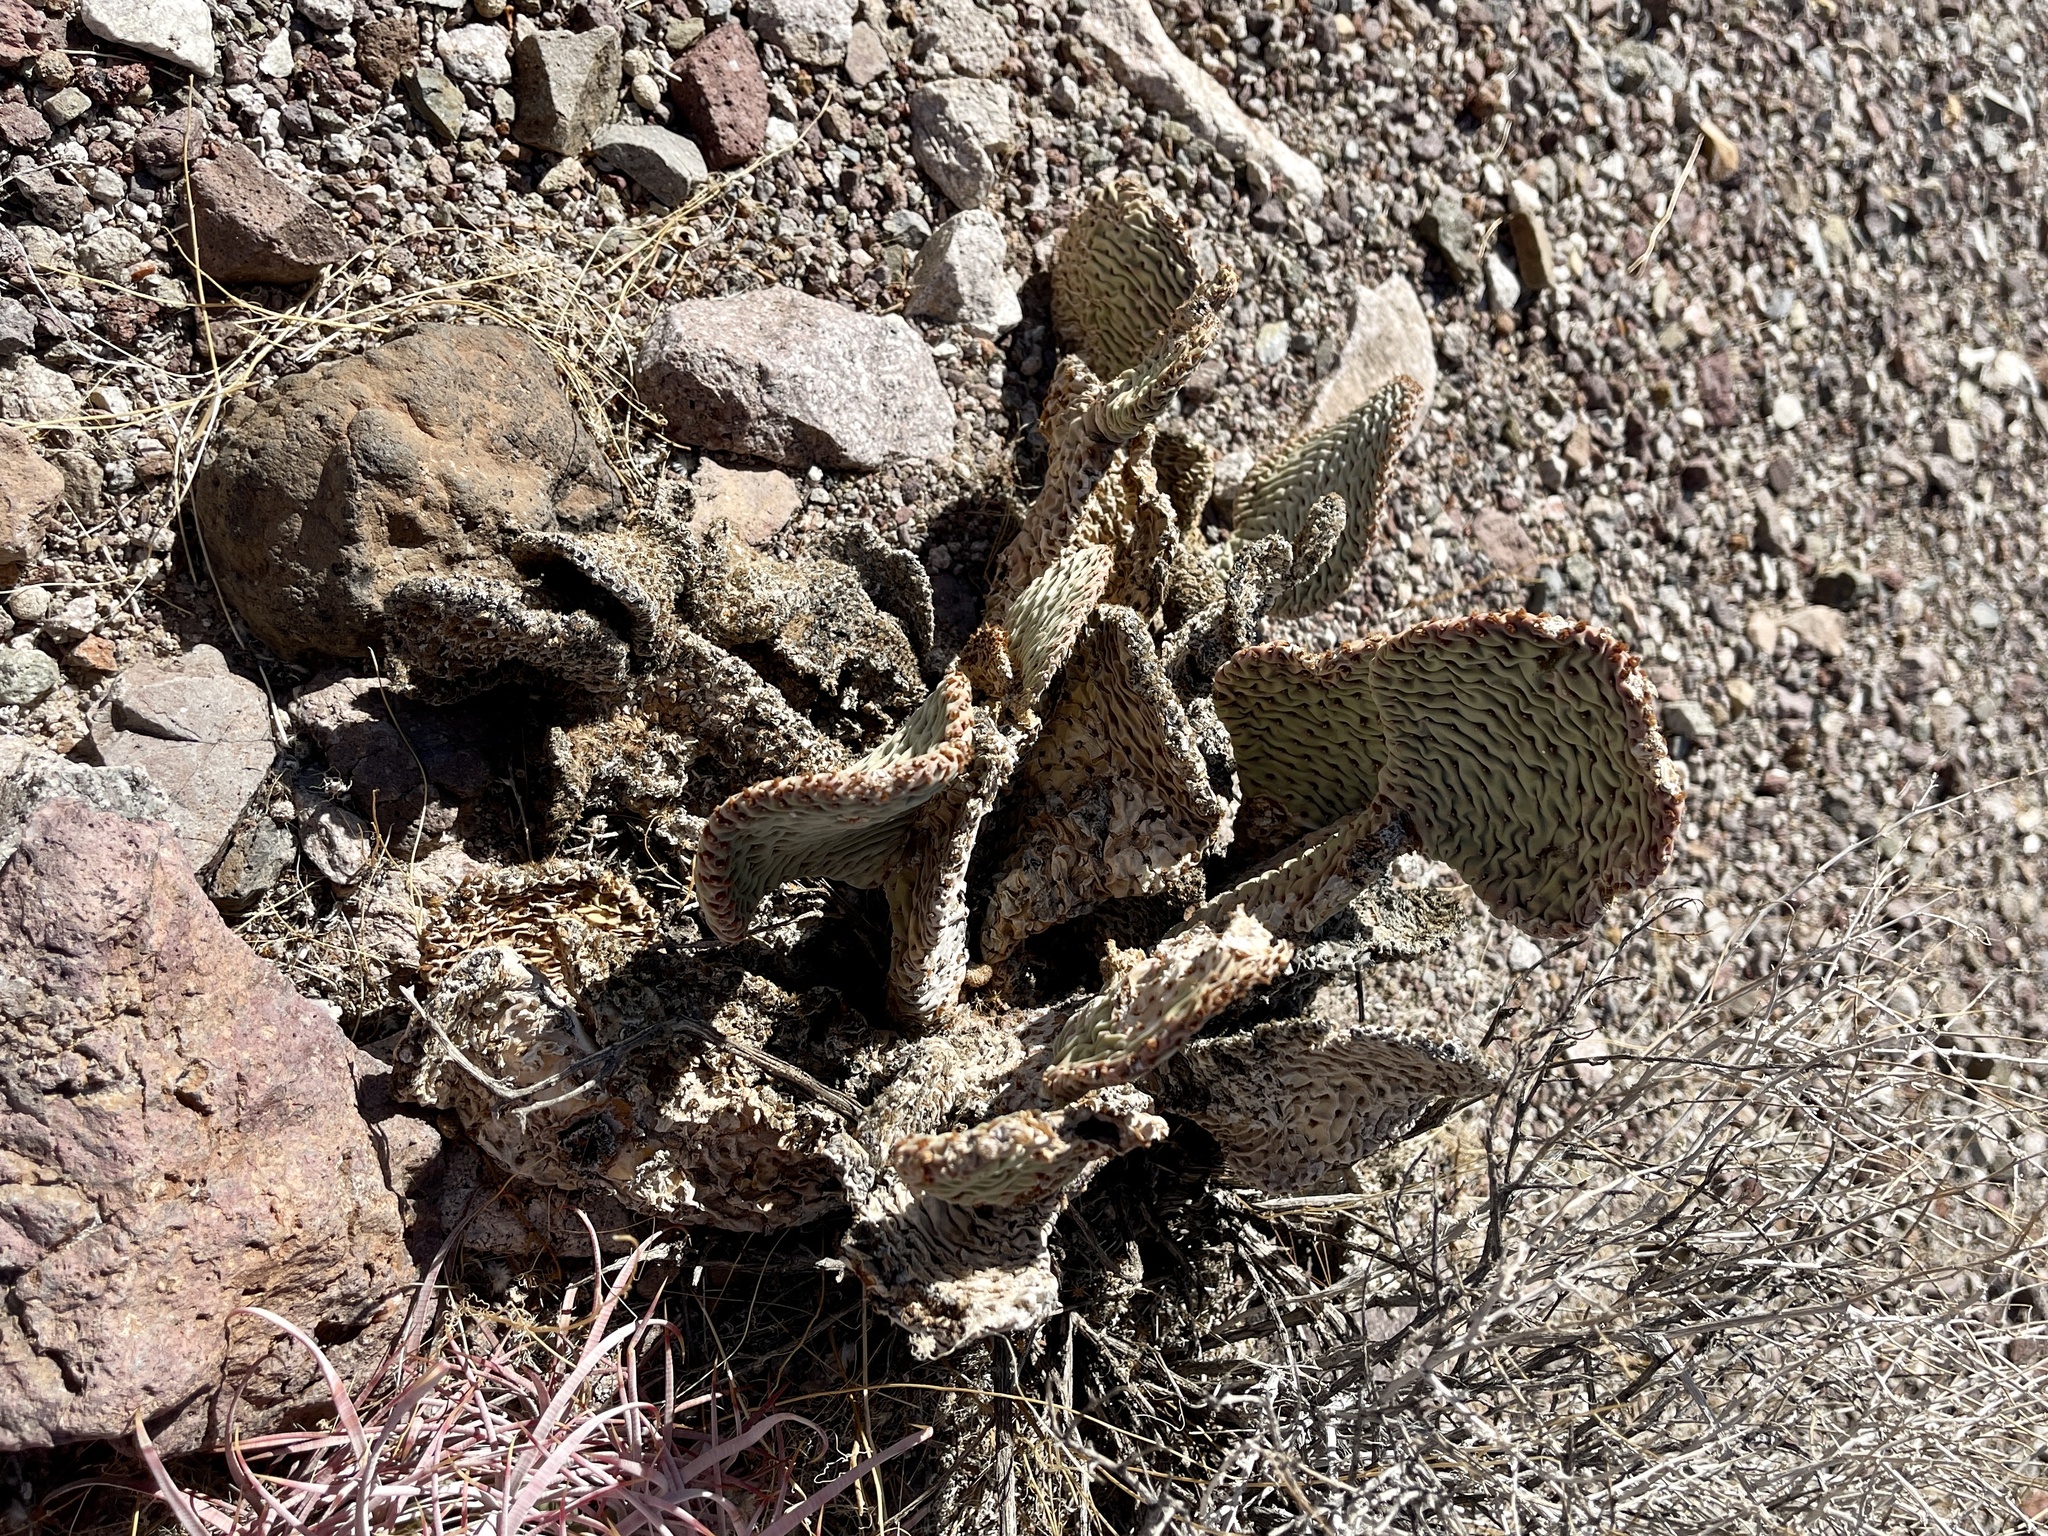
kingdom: Plantae
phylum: Tracheophyta
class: Magnoliopsida
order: Caryophyllales
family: Cactaceae
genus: Opuntia
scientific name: Opuntia basilaris
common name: Beavertail prickly-pear
